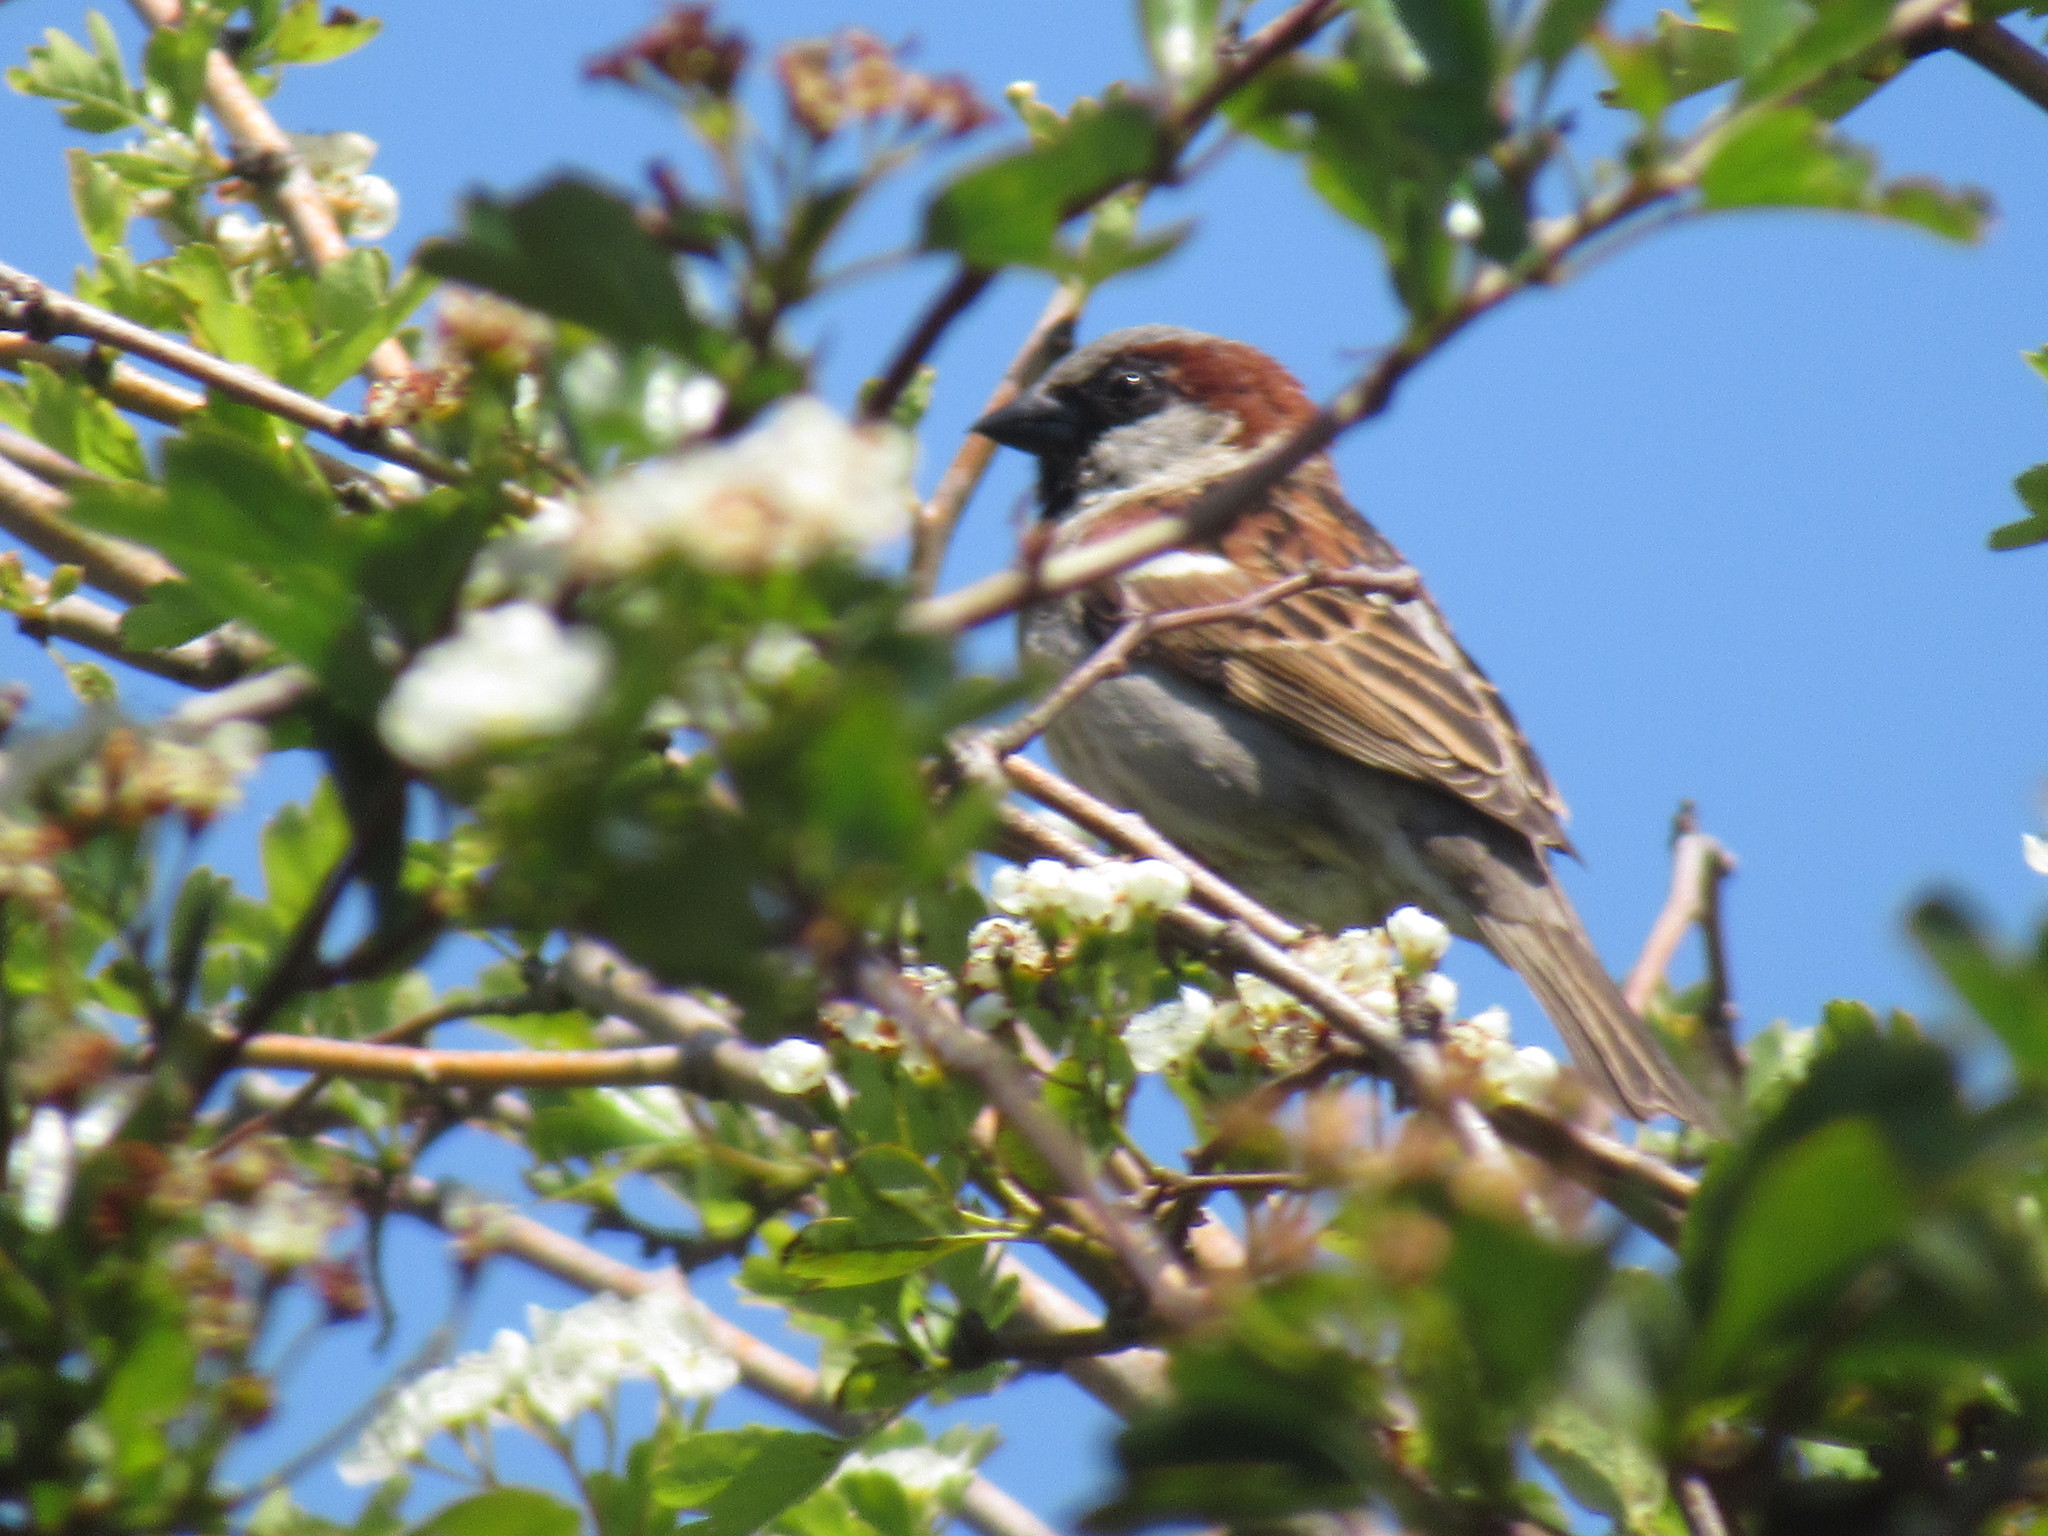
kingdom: Animalia
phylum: Chordata
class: Aves
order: Passeriformes
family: Passeridae
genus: Passer
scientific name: Passer domesticus
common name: House sparrow
